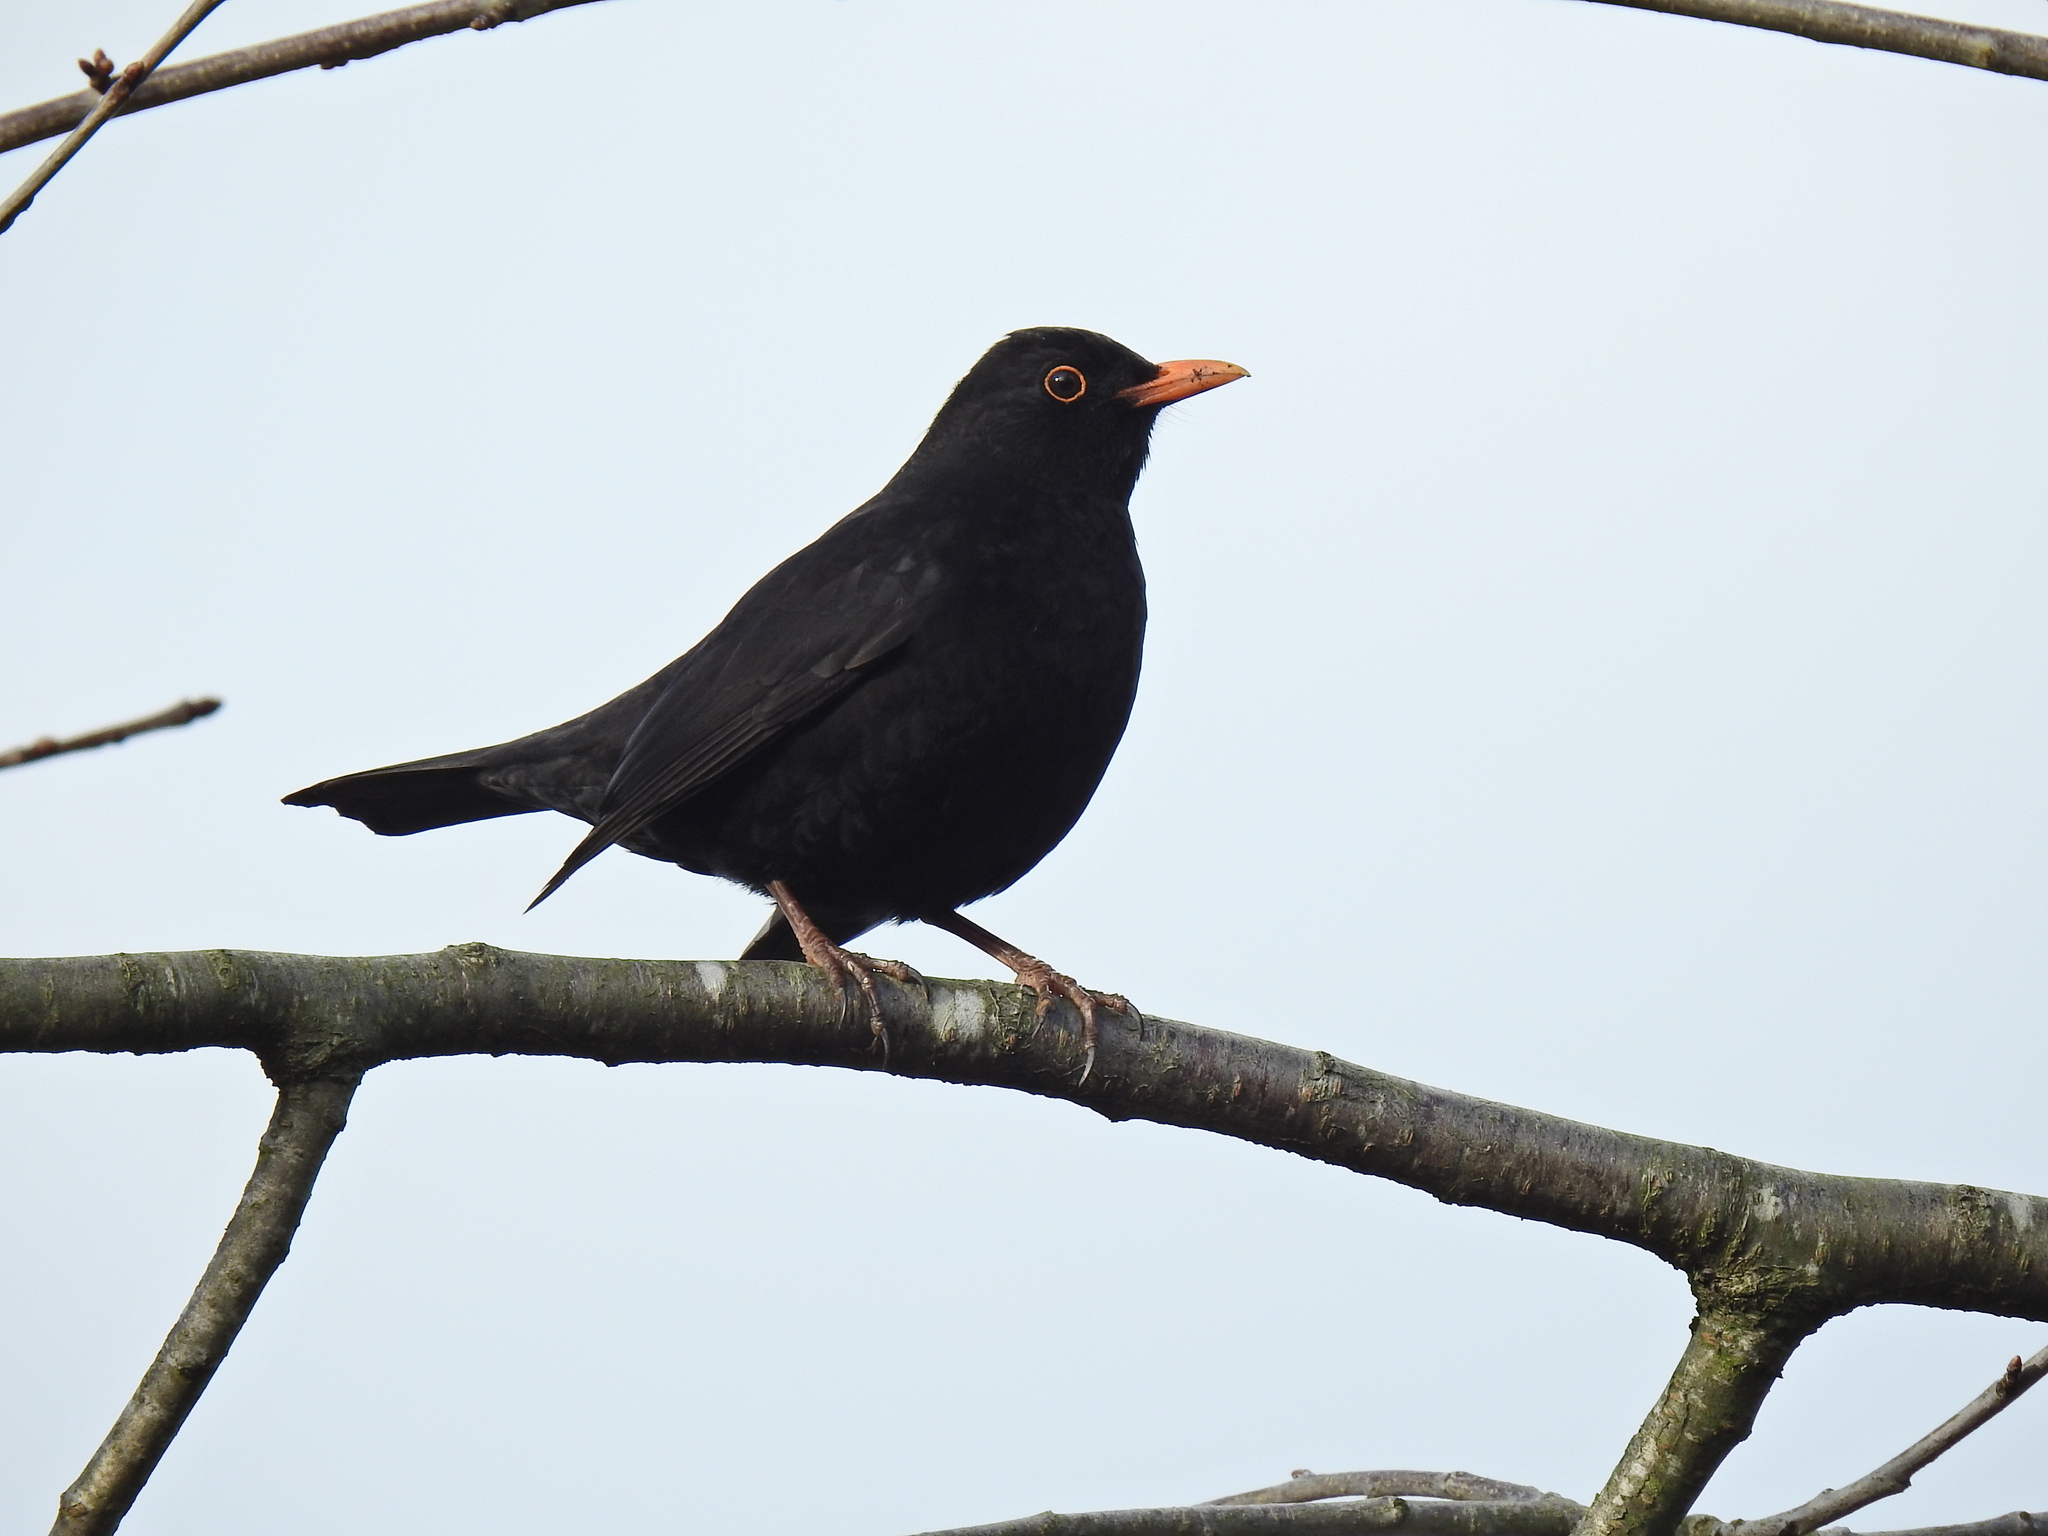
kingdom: Animalia
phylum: Chordata
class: Aves
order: Passeriformes
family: Turdidae
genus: Turdus
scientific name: Turdus merula
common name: Common blackbird
